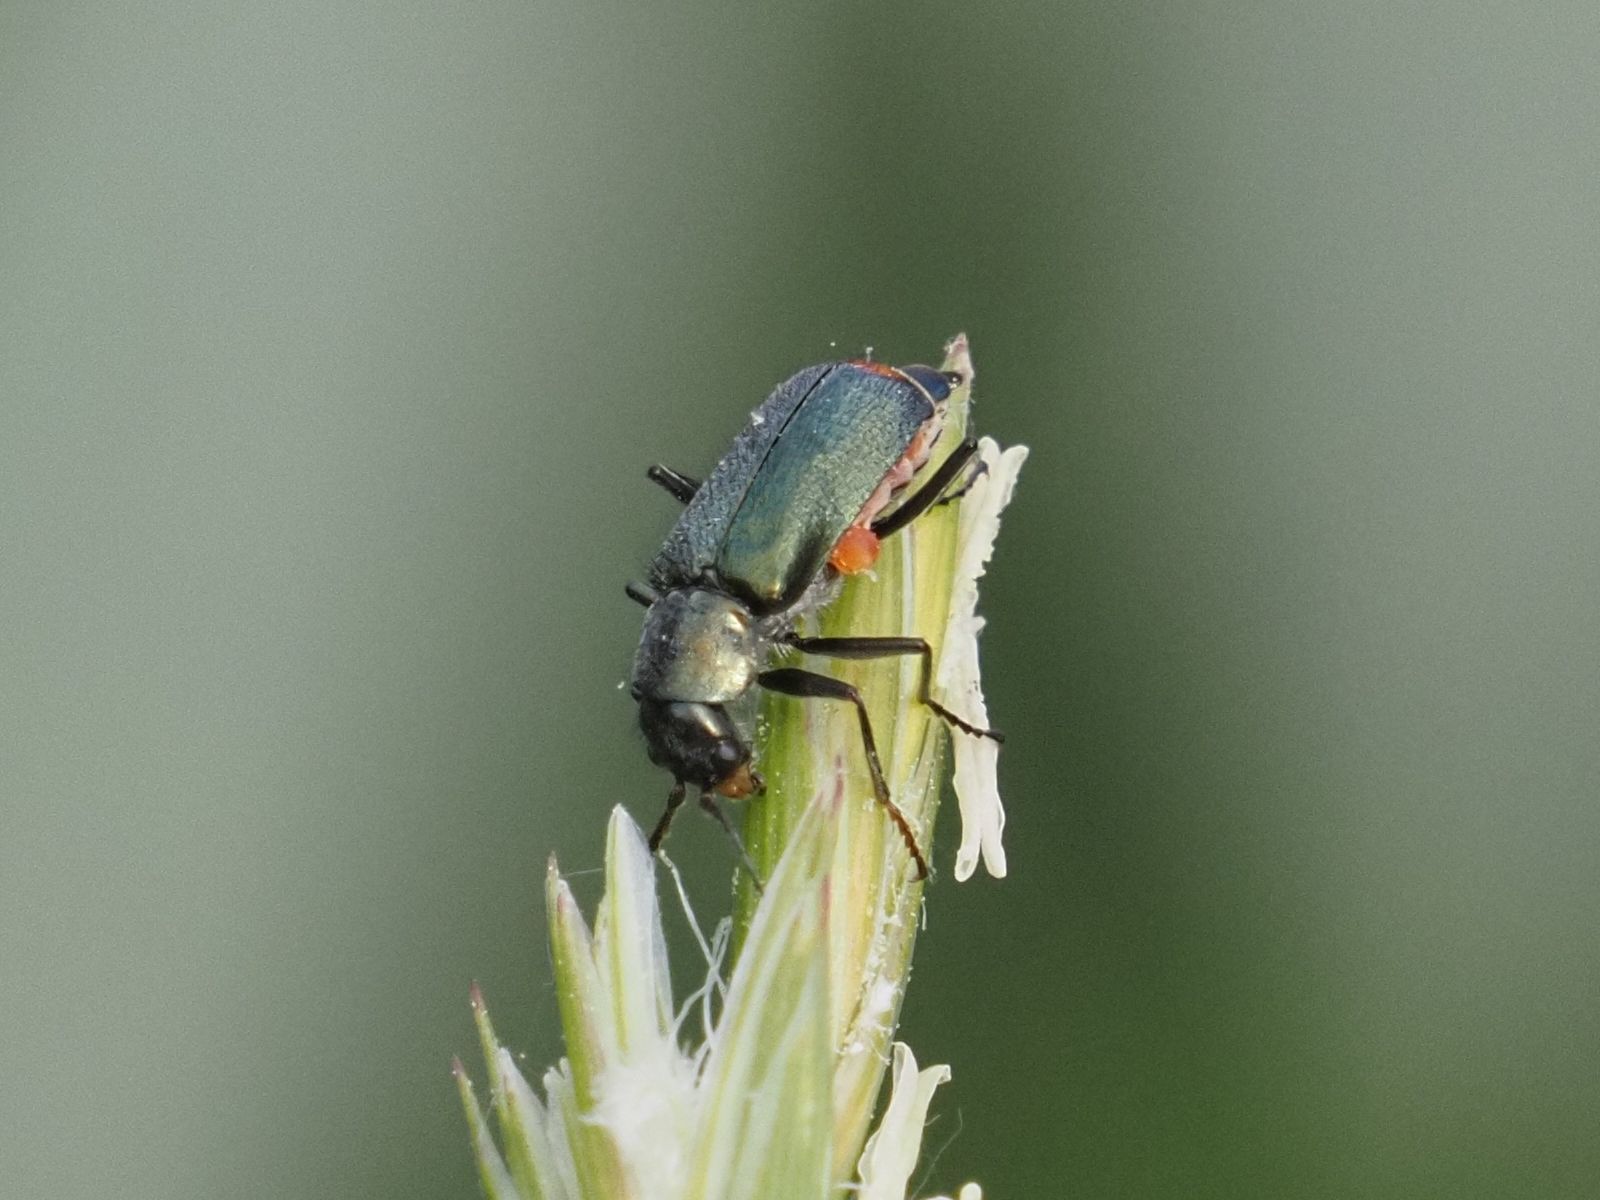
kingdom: Animalia
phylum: Arthropoda
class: Insecta
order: Coleoptera
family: Melyridae
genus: Malachius
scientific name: Malachius bipustulatus
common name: Malachite beetle
